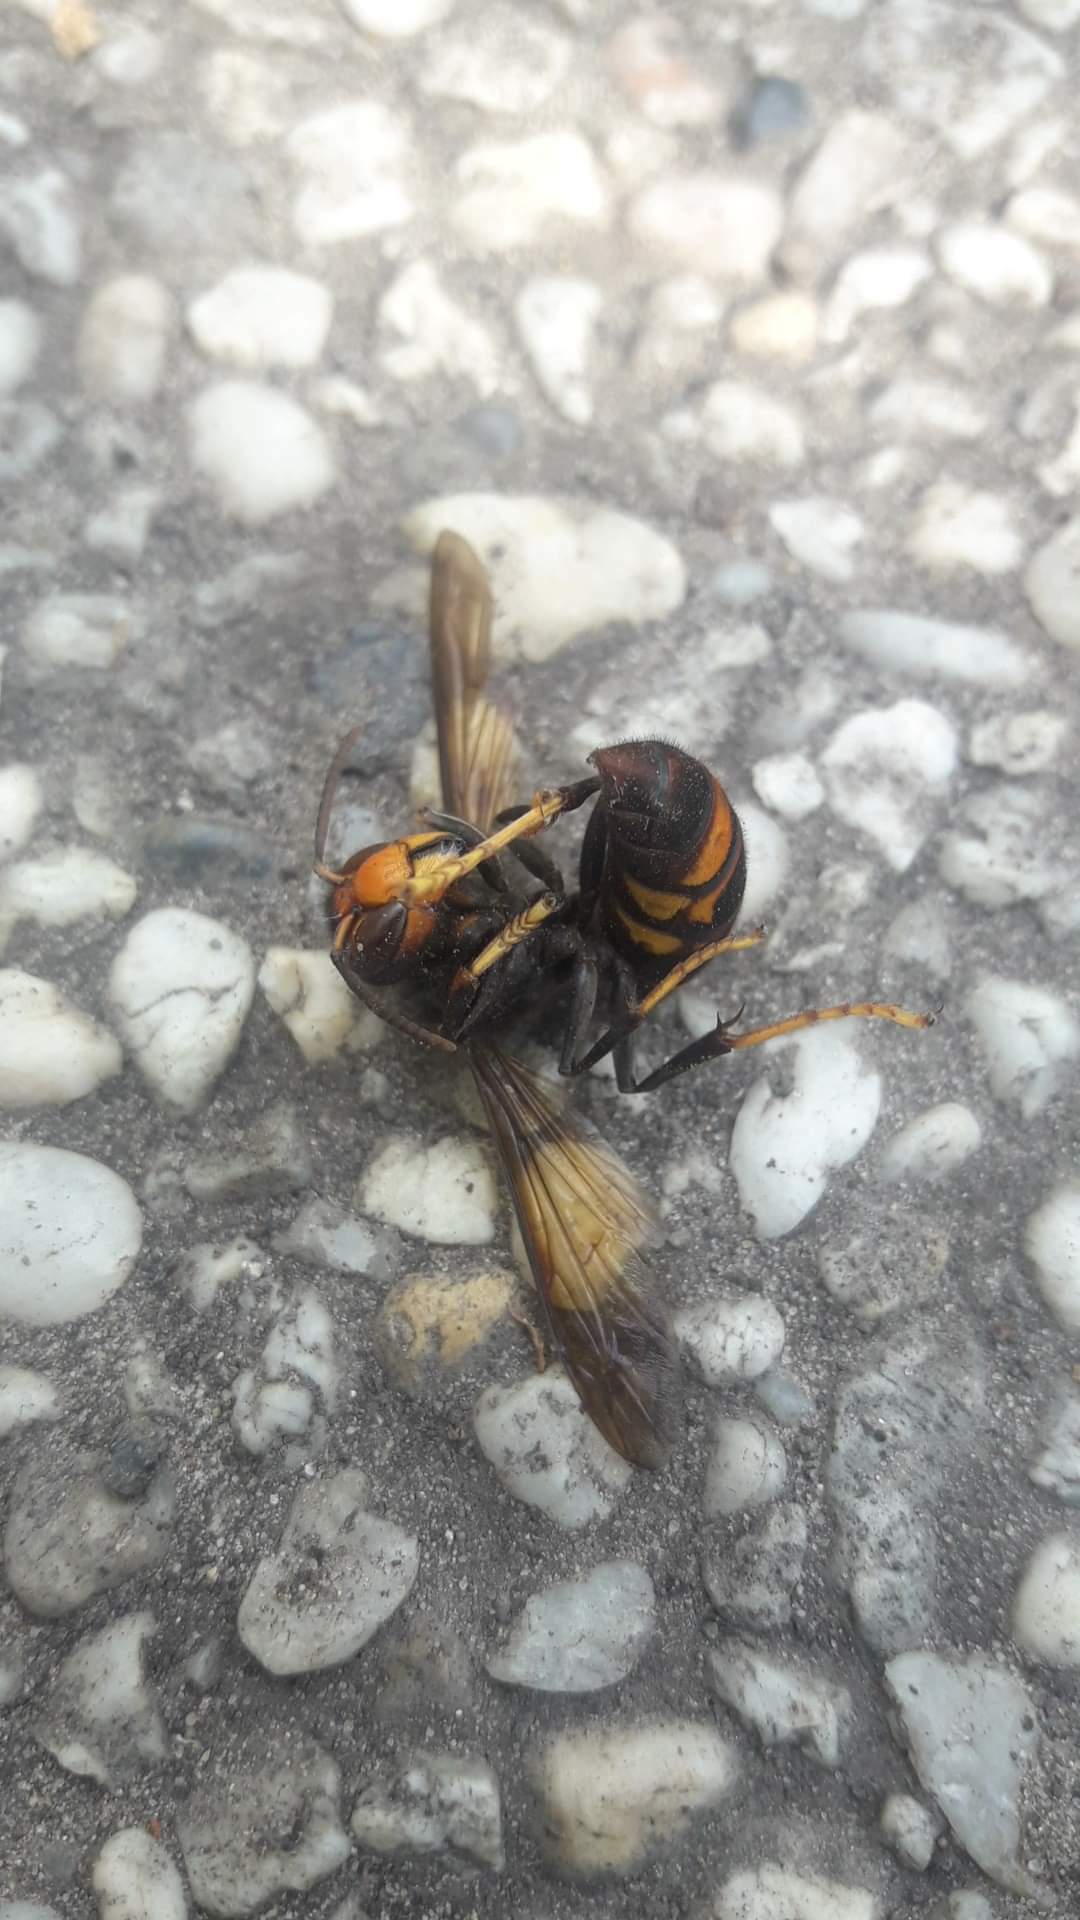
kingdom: Animalia
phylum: Arthropoda
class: Insecta
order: Hymenoptera
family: Vespidae
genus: Vespa
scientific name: Vespa velutina
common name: Asian hornet
